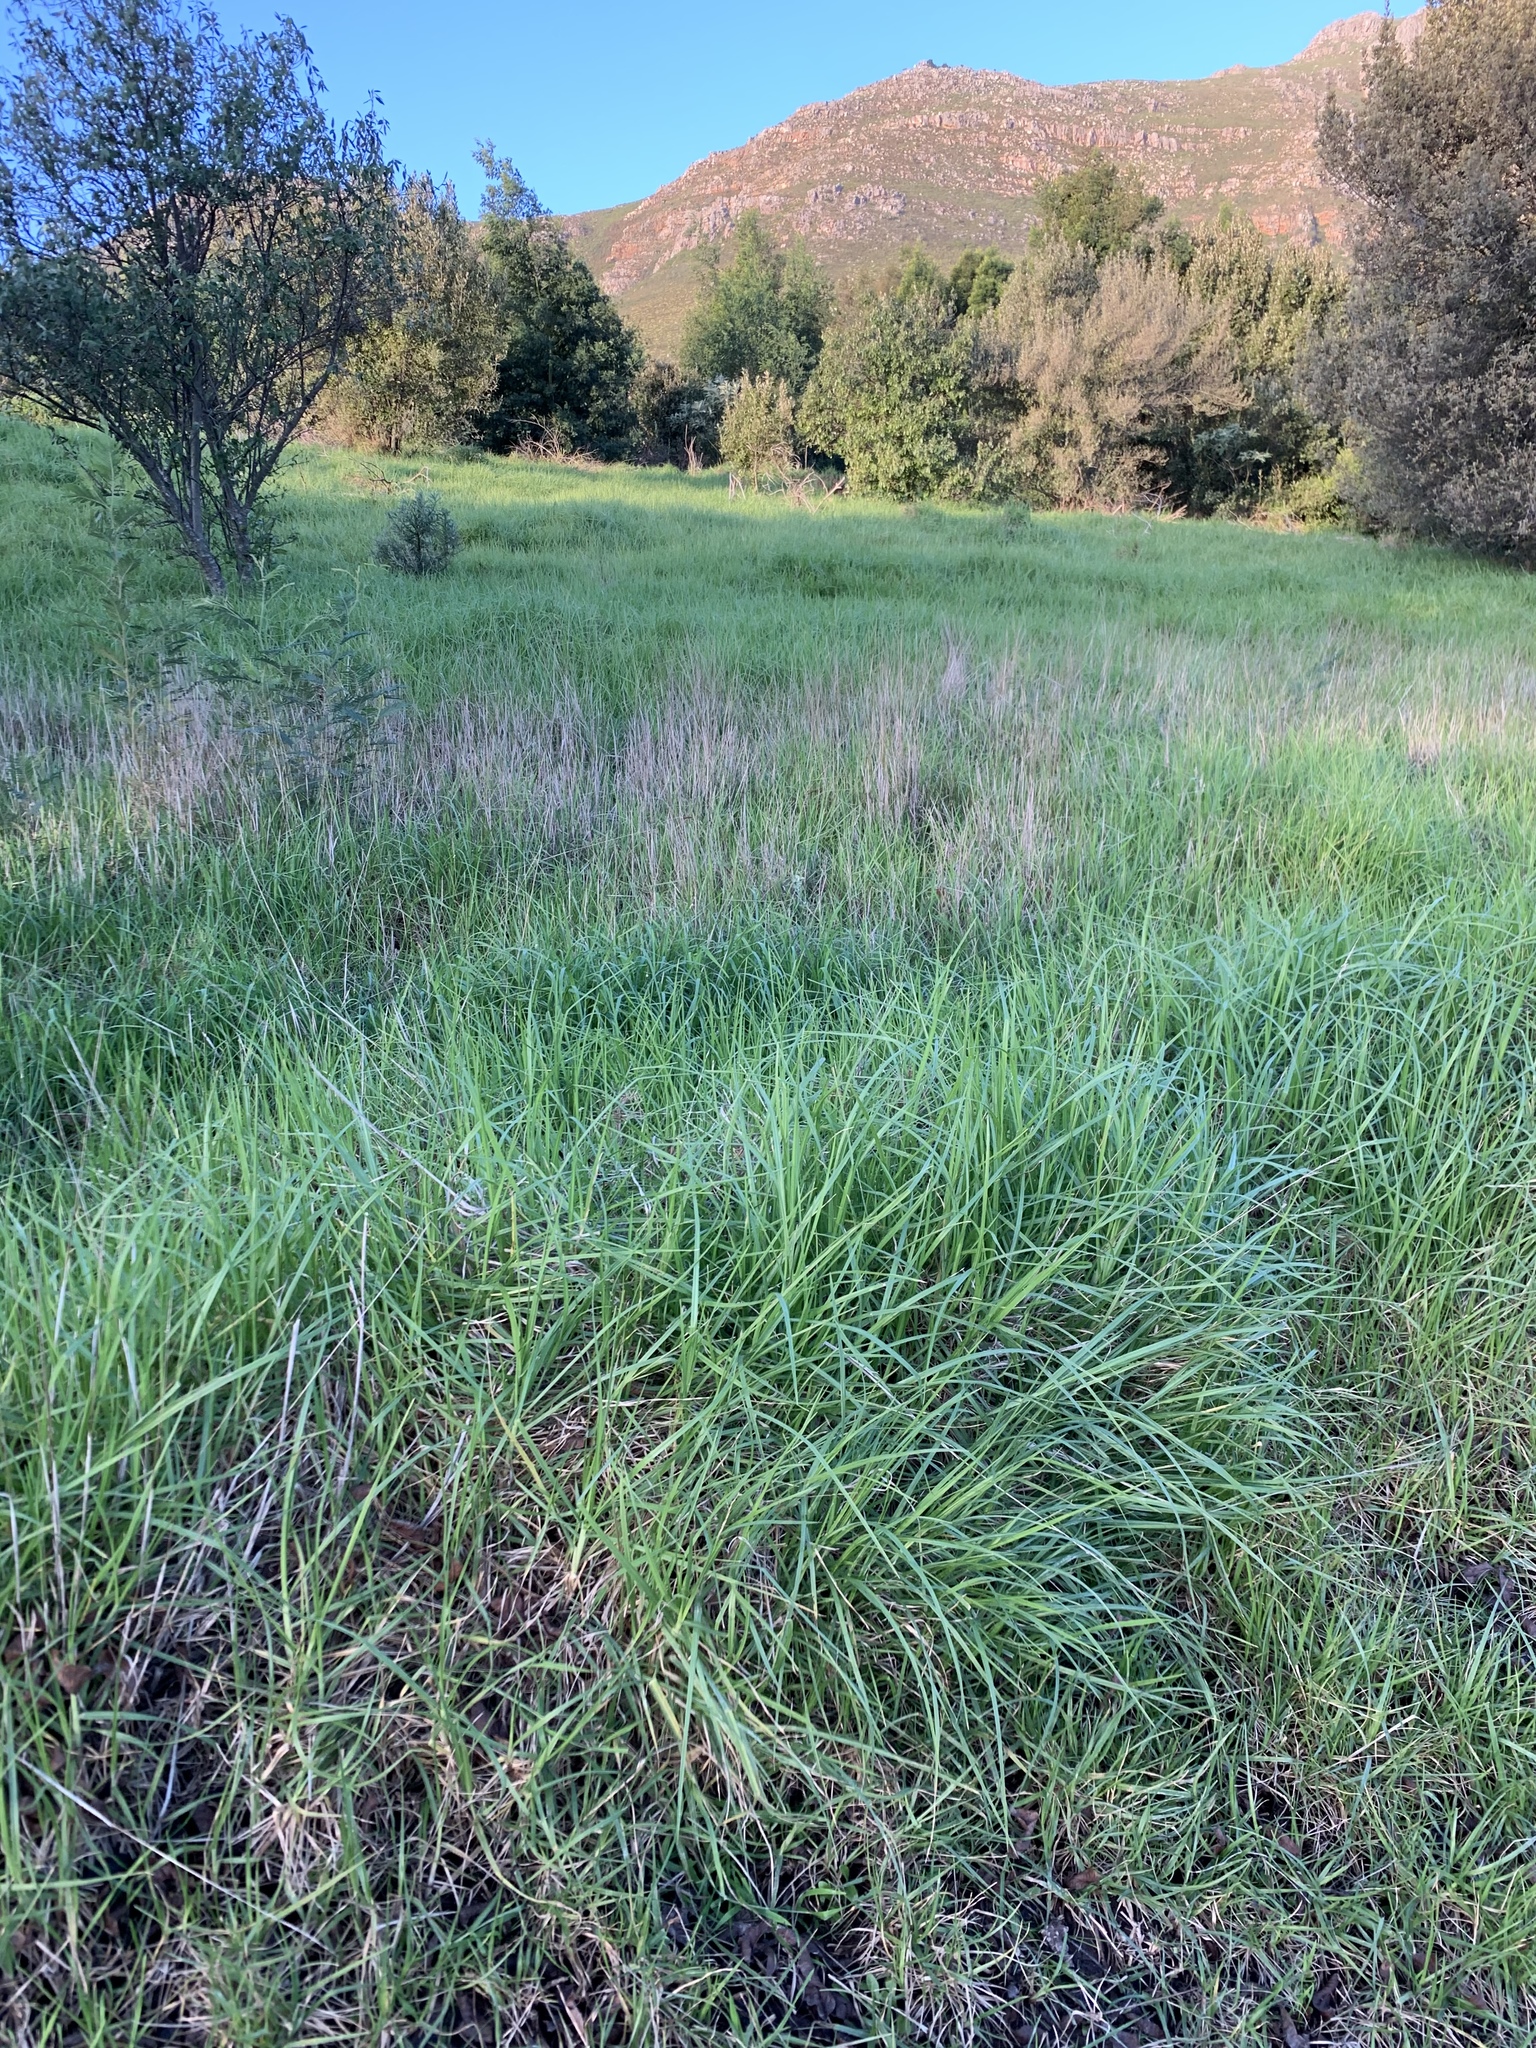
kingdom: Plantae
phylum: Tracheophyta
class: Liliopsida
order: Poales
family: Poaceae
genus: Cenchrus
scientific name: Cenchrus clandestinus
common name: Kikuyugrass
